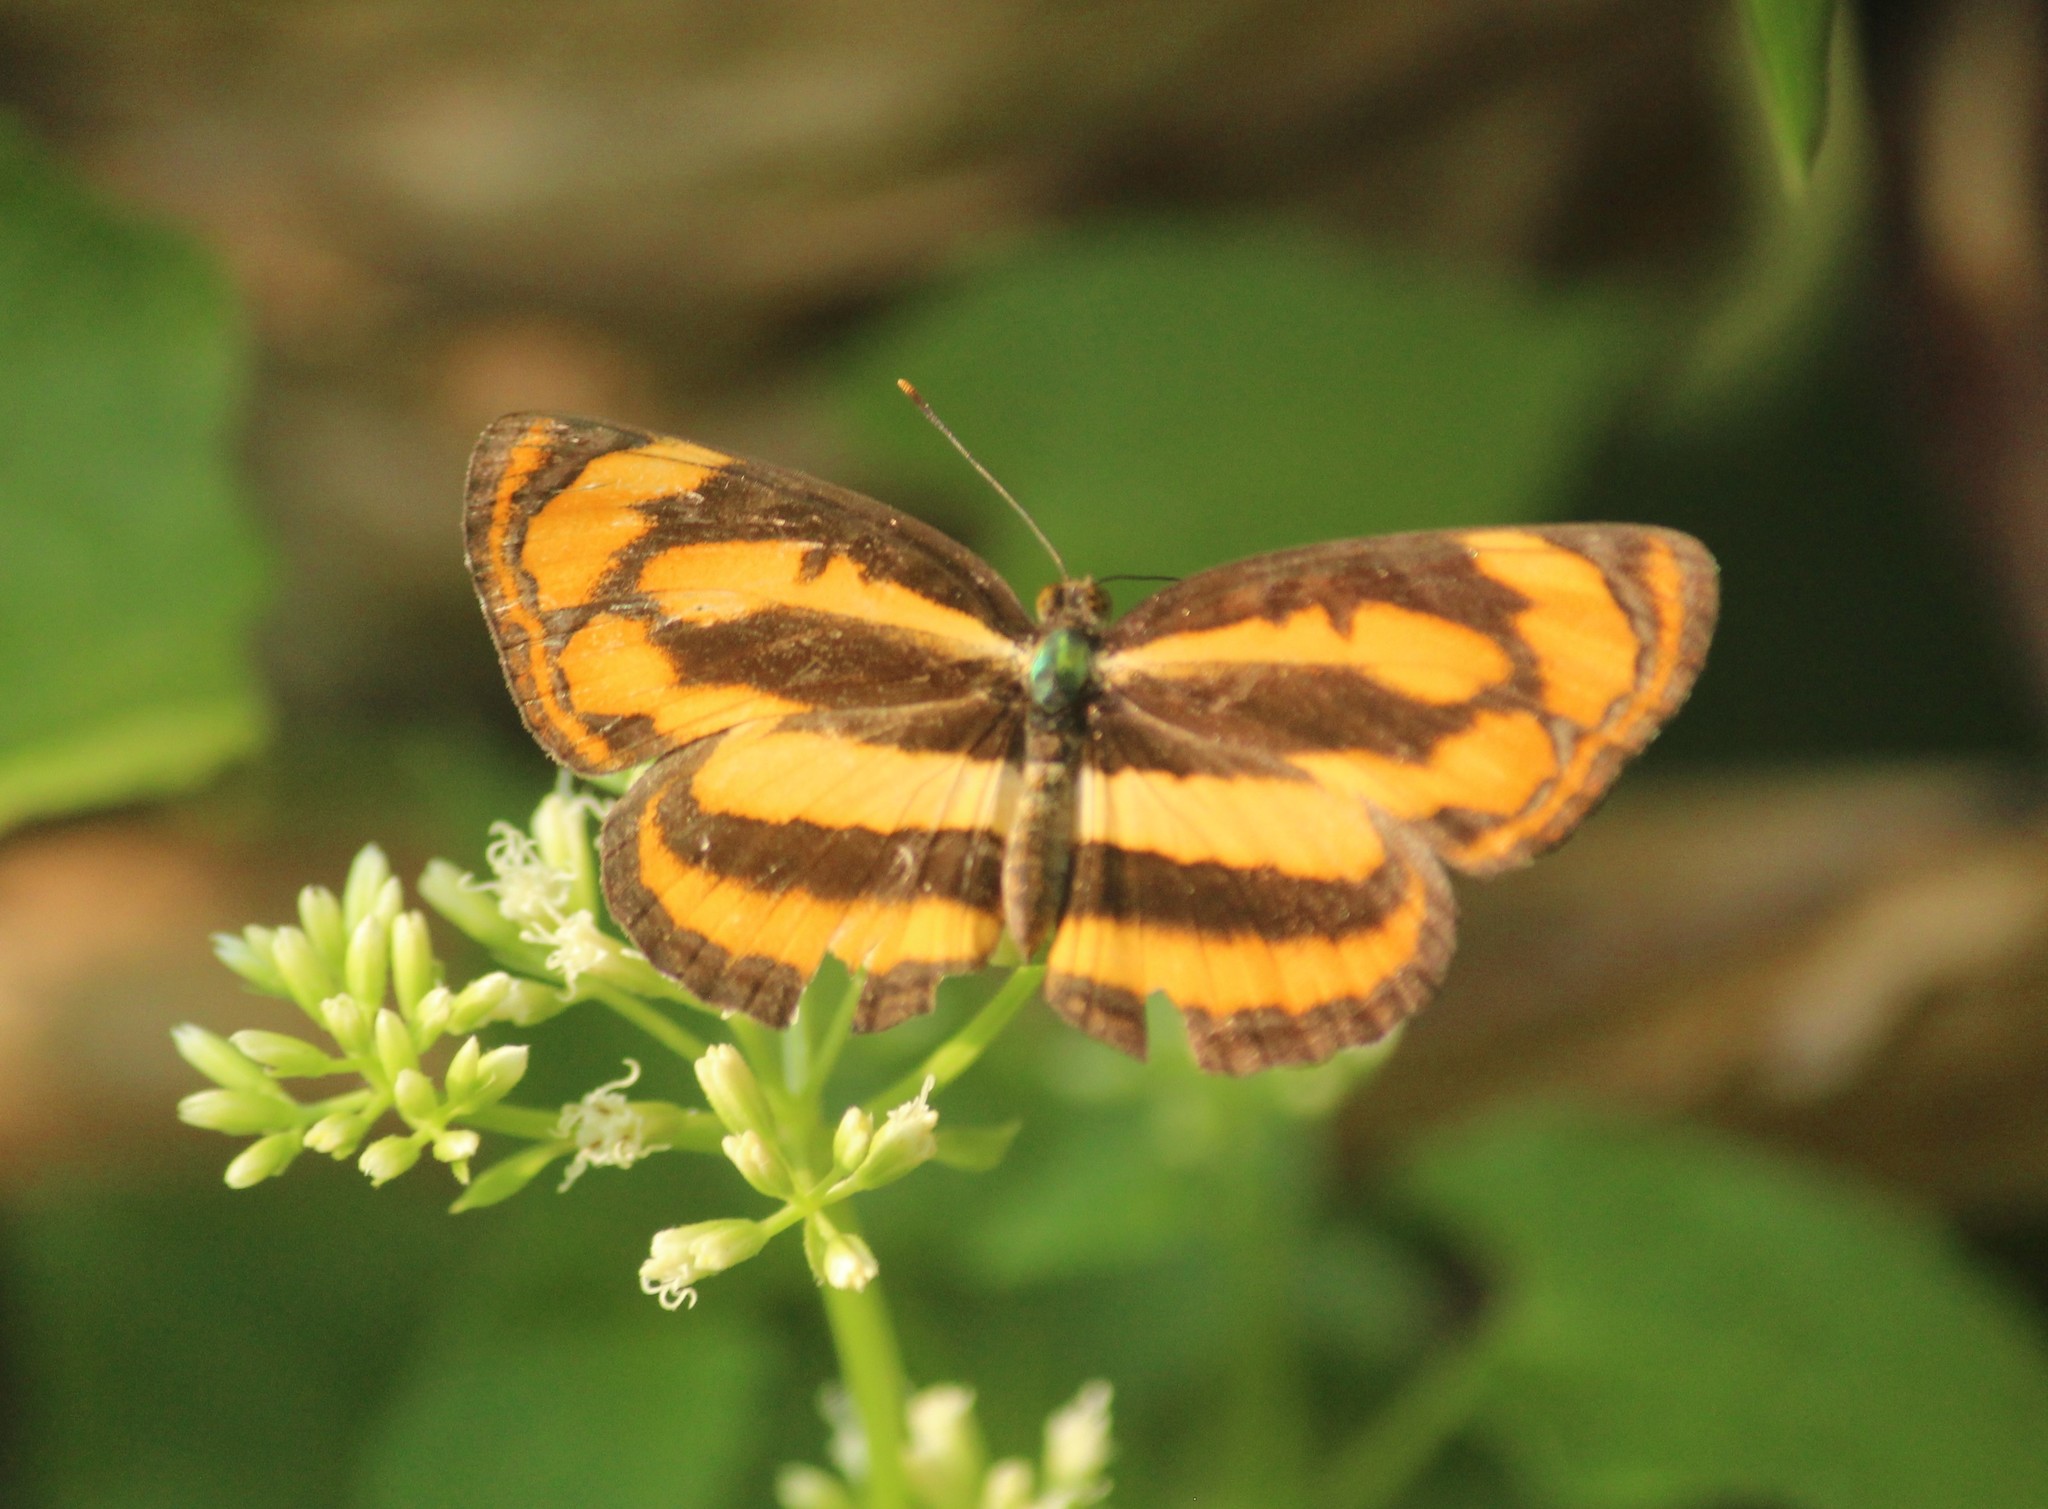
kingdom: Animalia
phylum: Arthropoda
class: Insecta
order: Lepidoptera
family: Nymphalidae
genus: Pantoporia
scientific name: Pantoporia hordonia
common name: Common lascar
